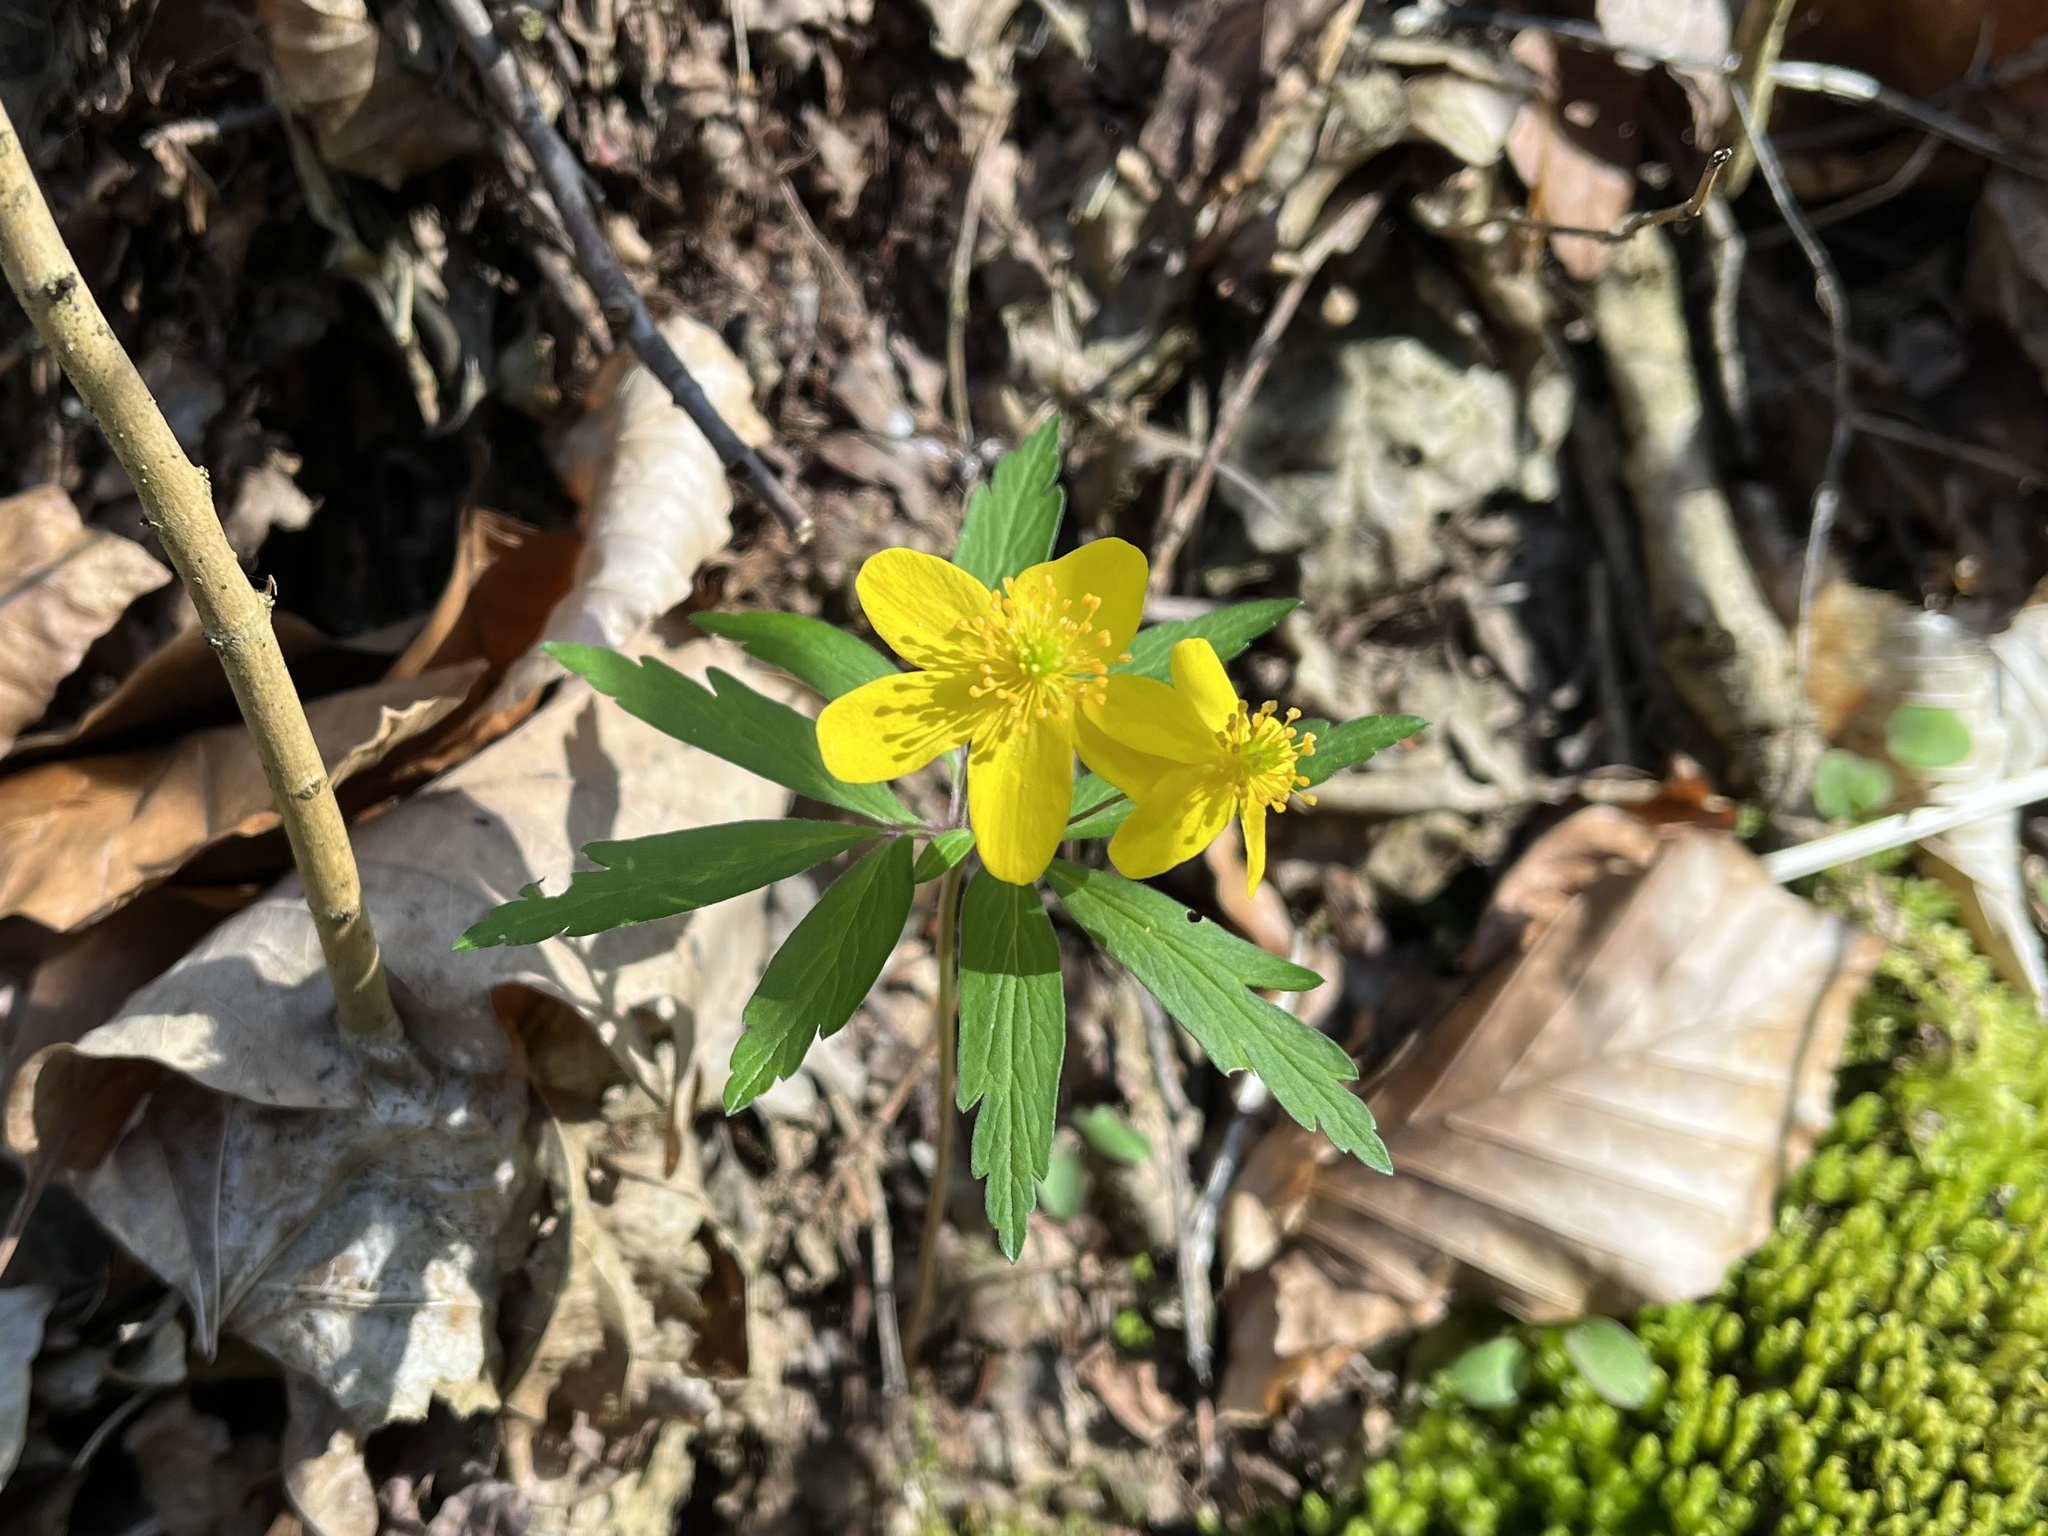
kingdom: Plantae
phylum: Tracheophyta
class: Magnoliopsida
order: Ranunculales
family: Ranunculaceae
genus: Anemone
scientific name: Anemone ranunculoides
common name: Yellow anemone
